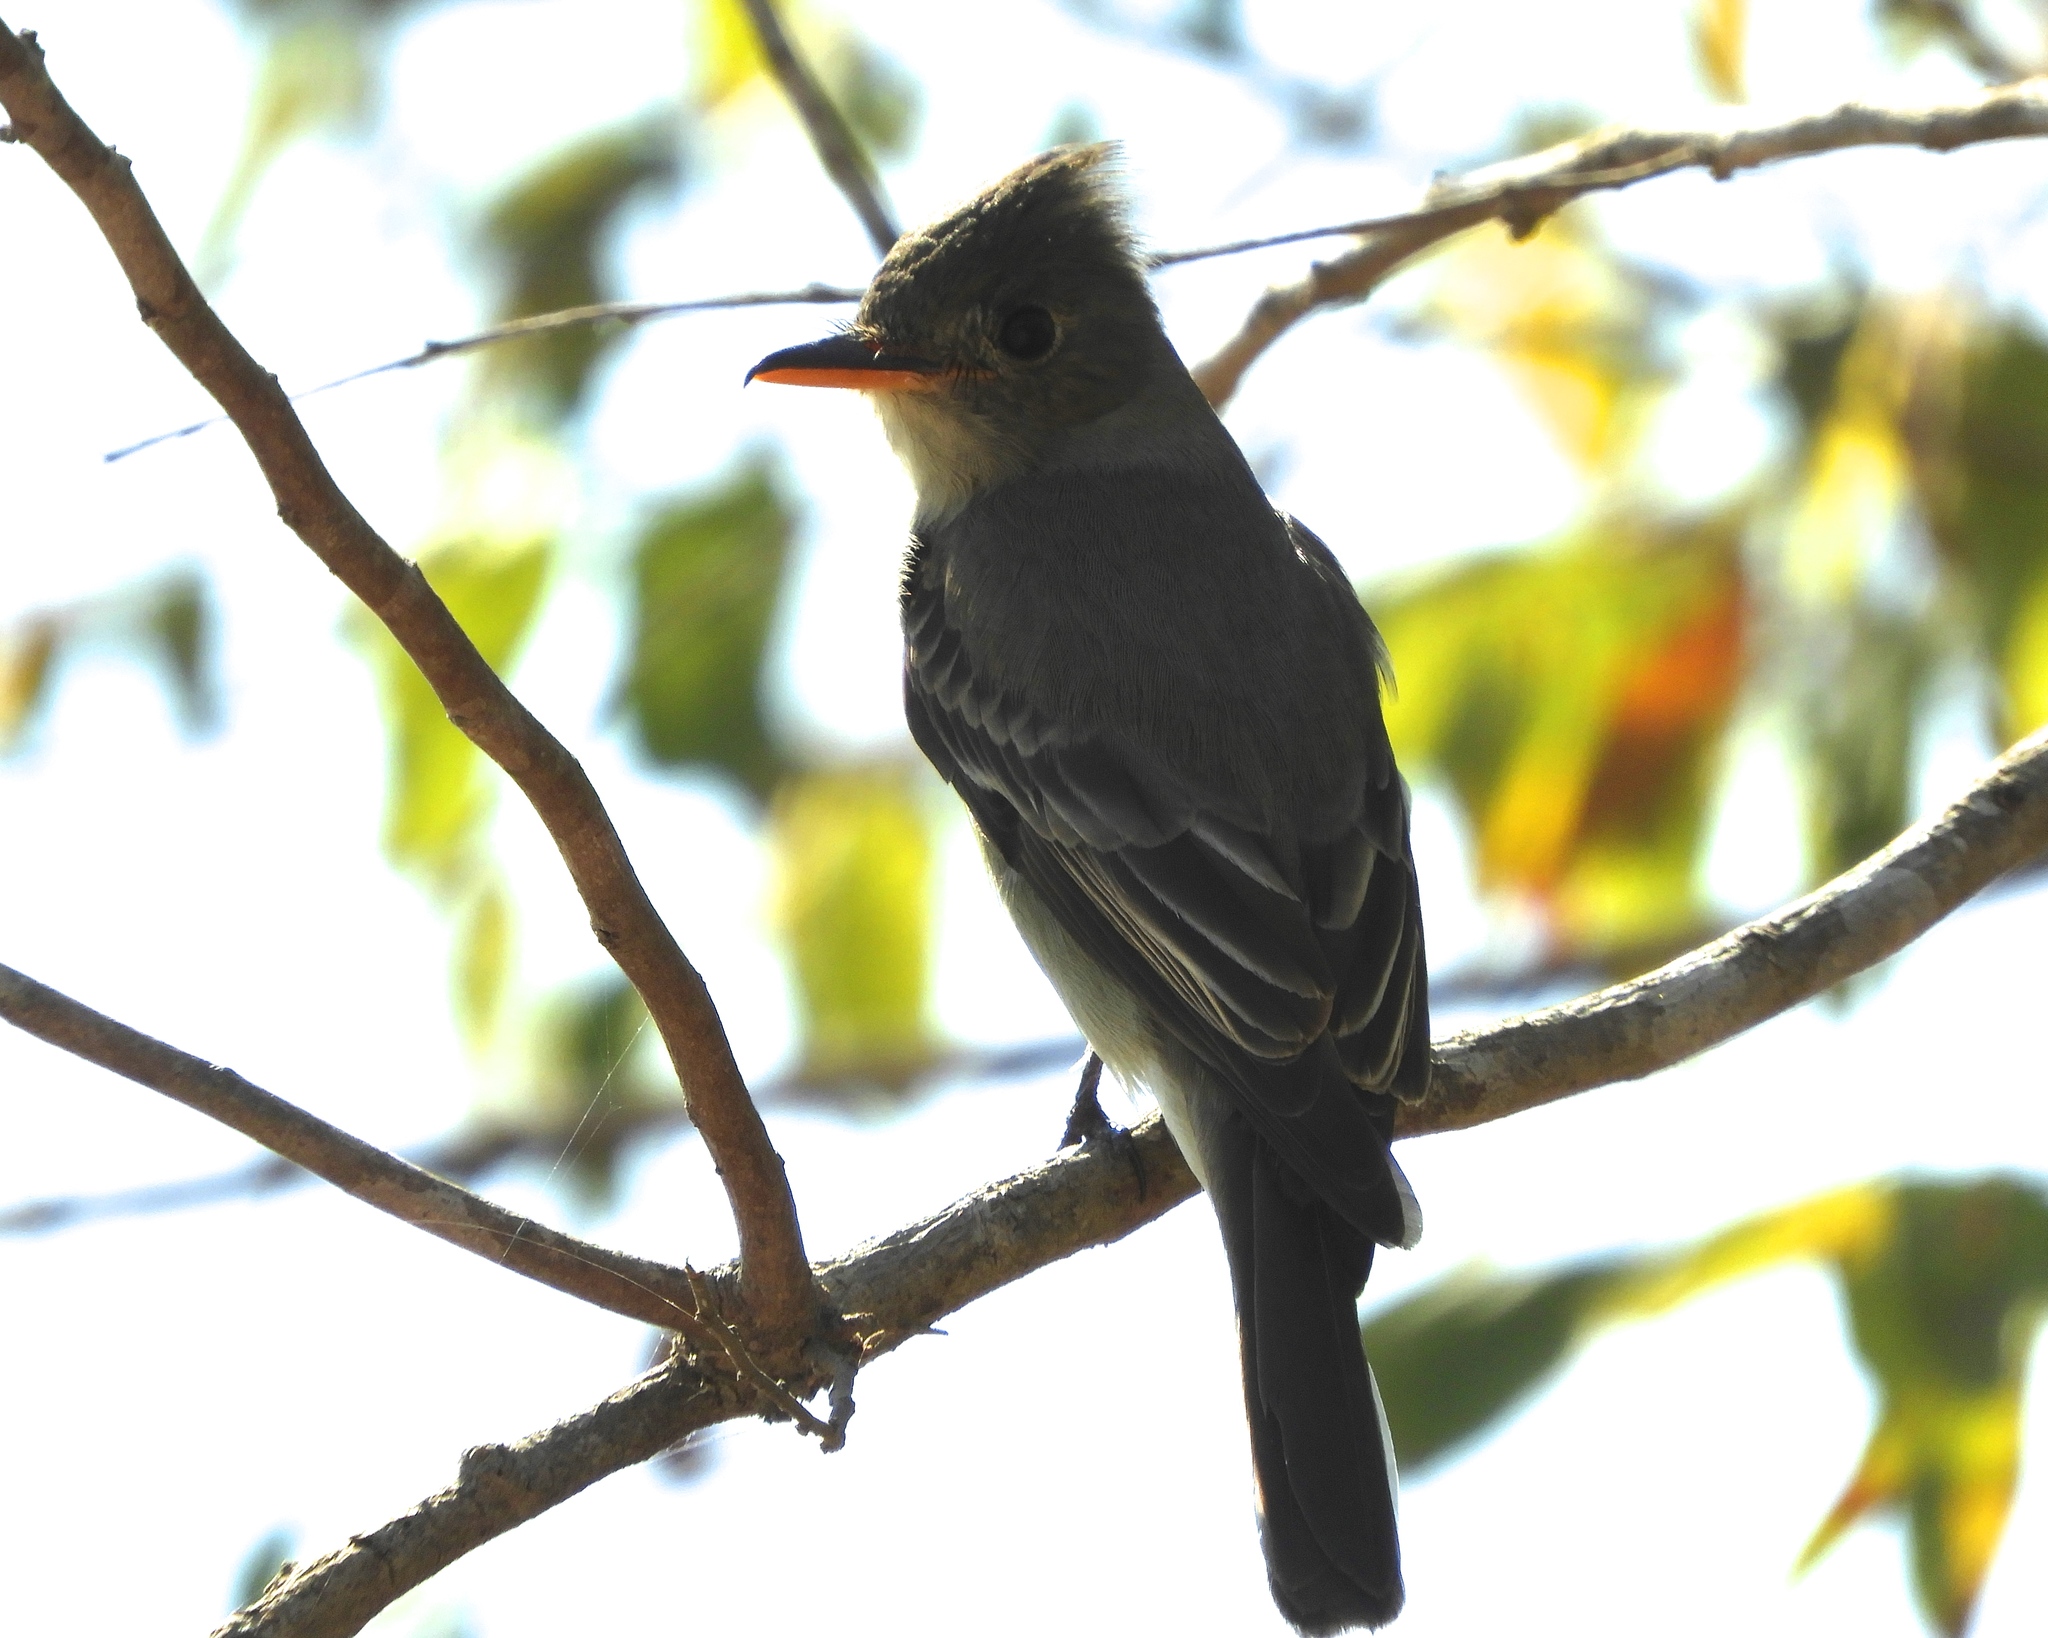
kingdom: Animalia
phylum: Chordata
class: Aves
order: Passeriformes
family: Tyrannidae
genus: Contopus
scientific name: Contopus pertinax
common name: Greater pewee
